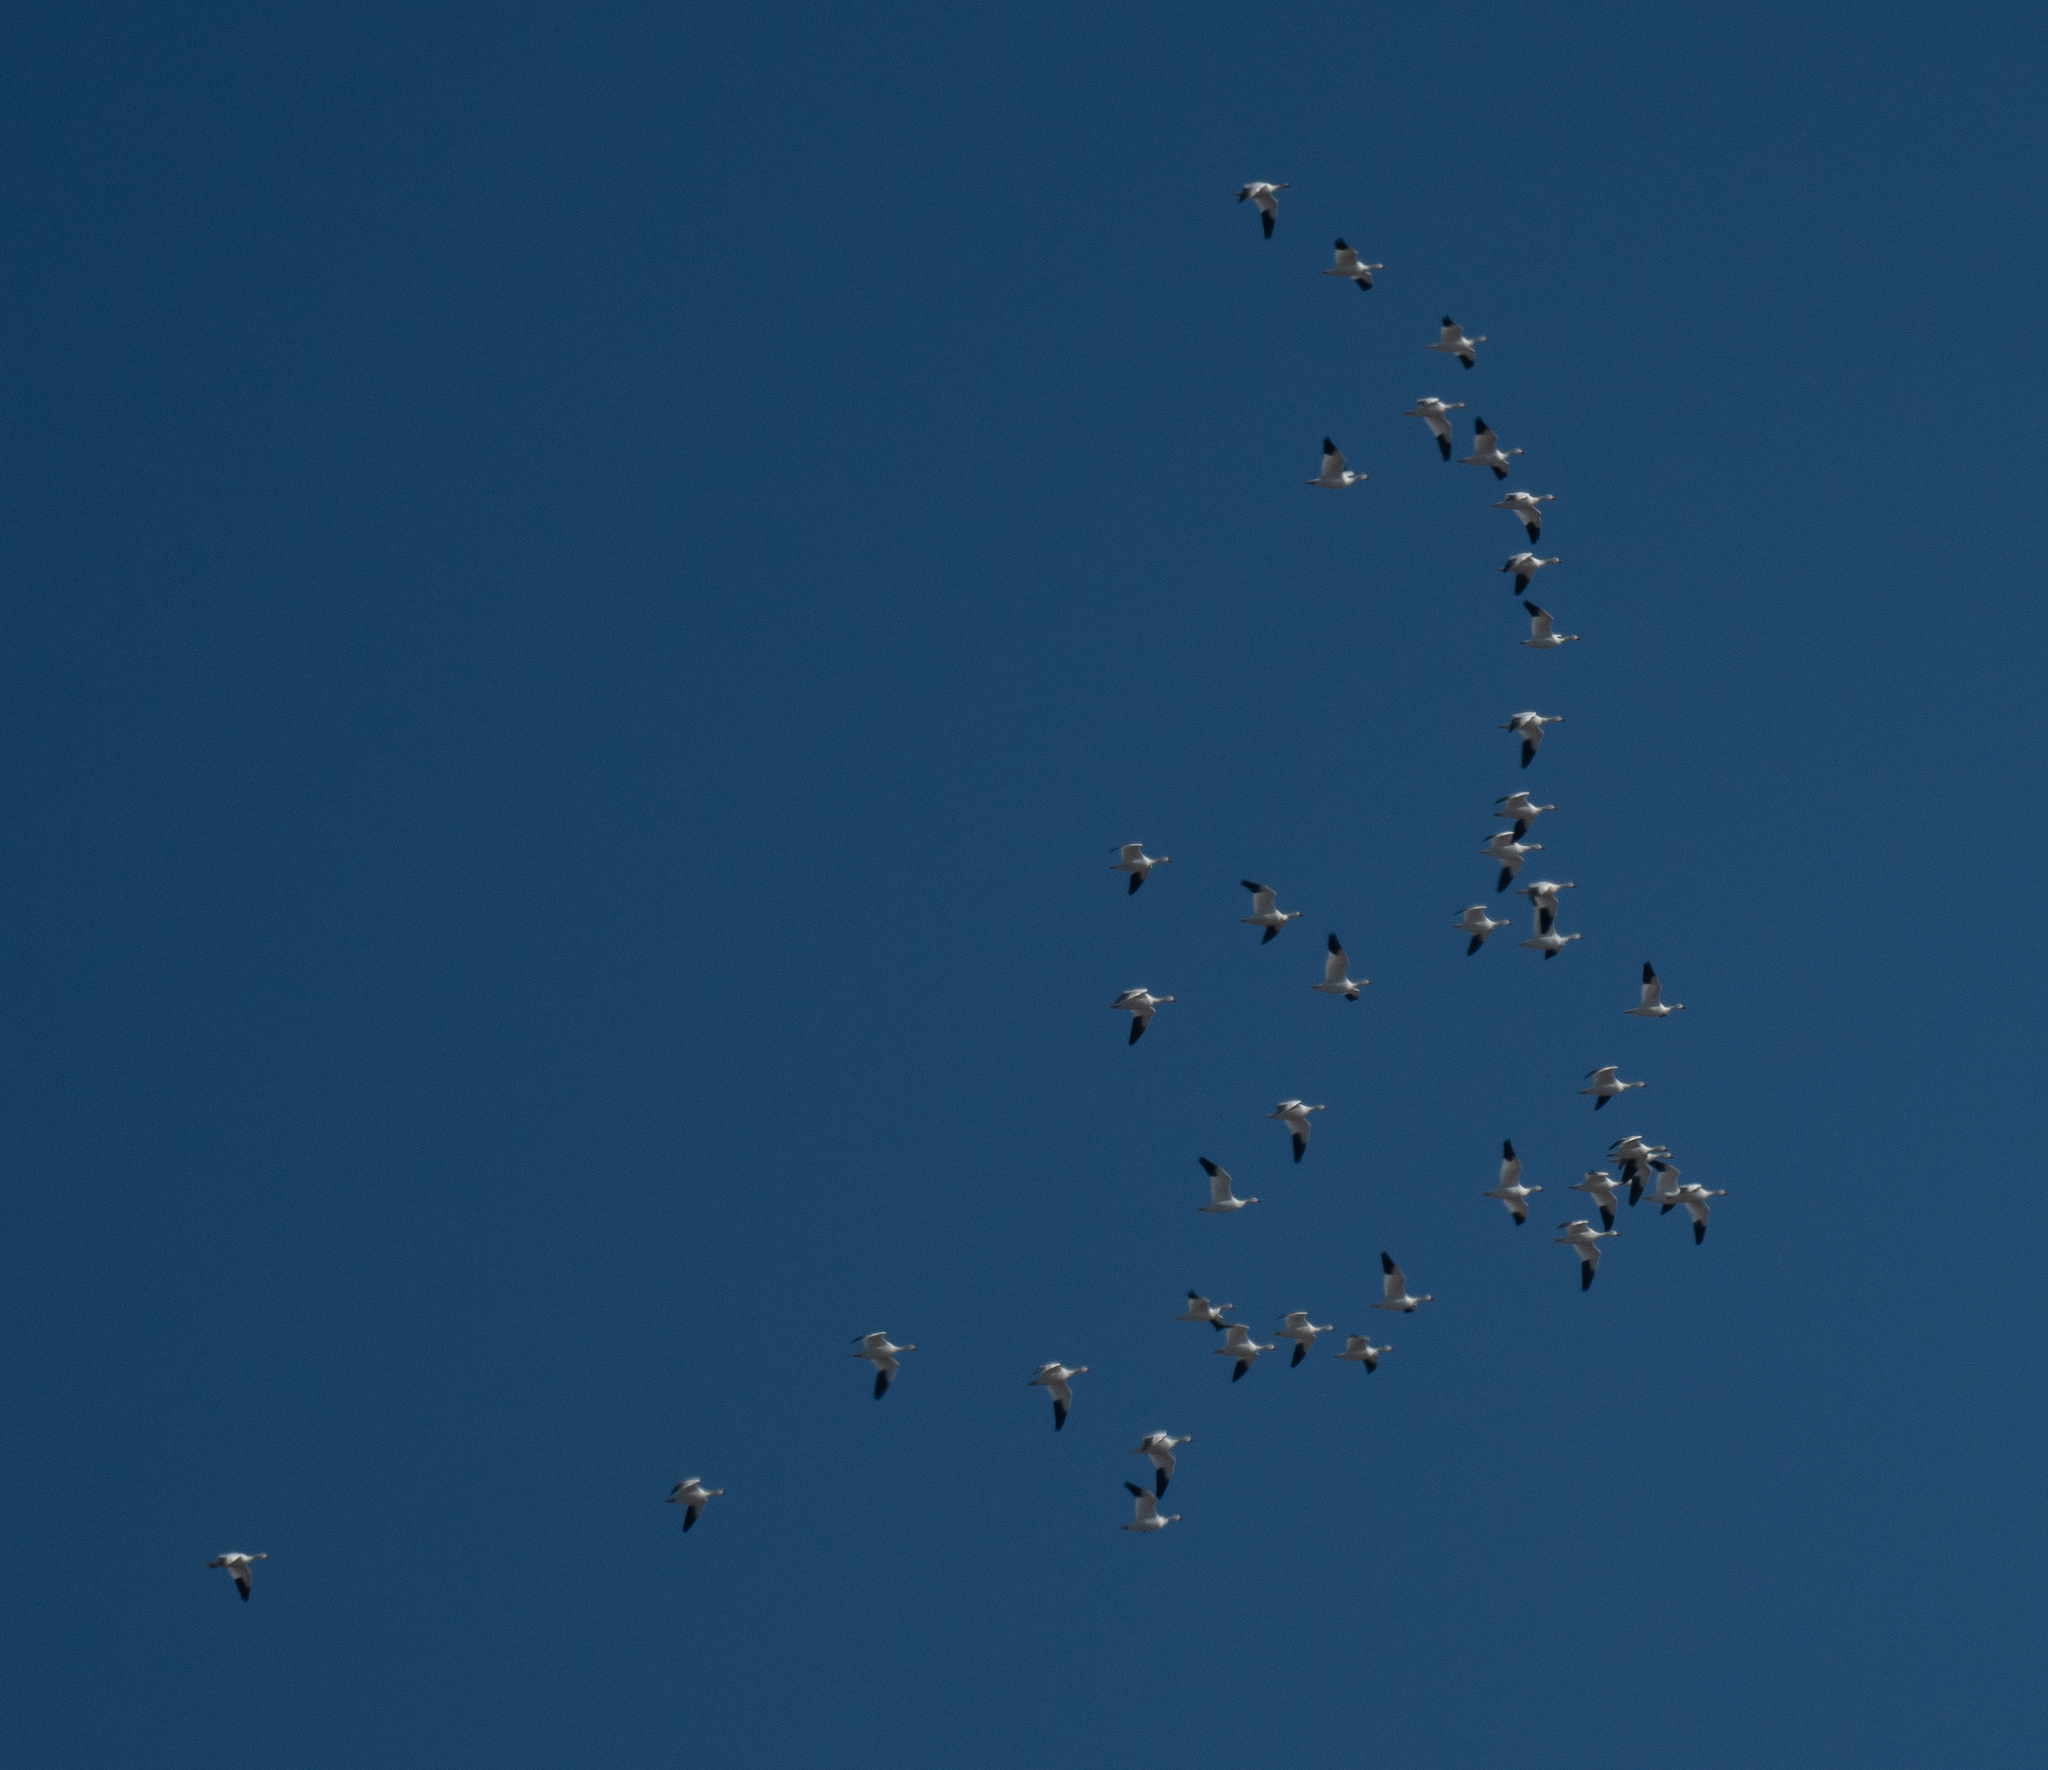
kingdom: Animalia
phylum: Chordata
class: Aves
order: Anseriformes
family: Anatidae
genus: Anser
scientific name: Anser caerulescens
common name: Snow goose
